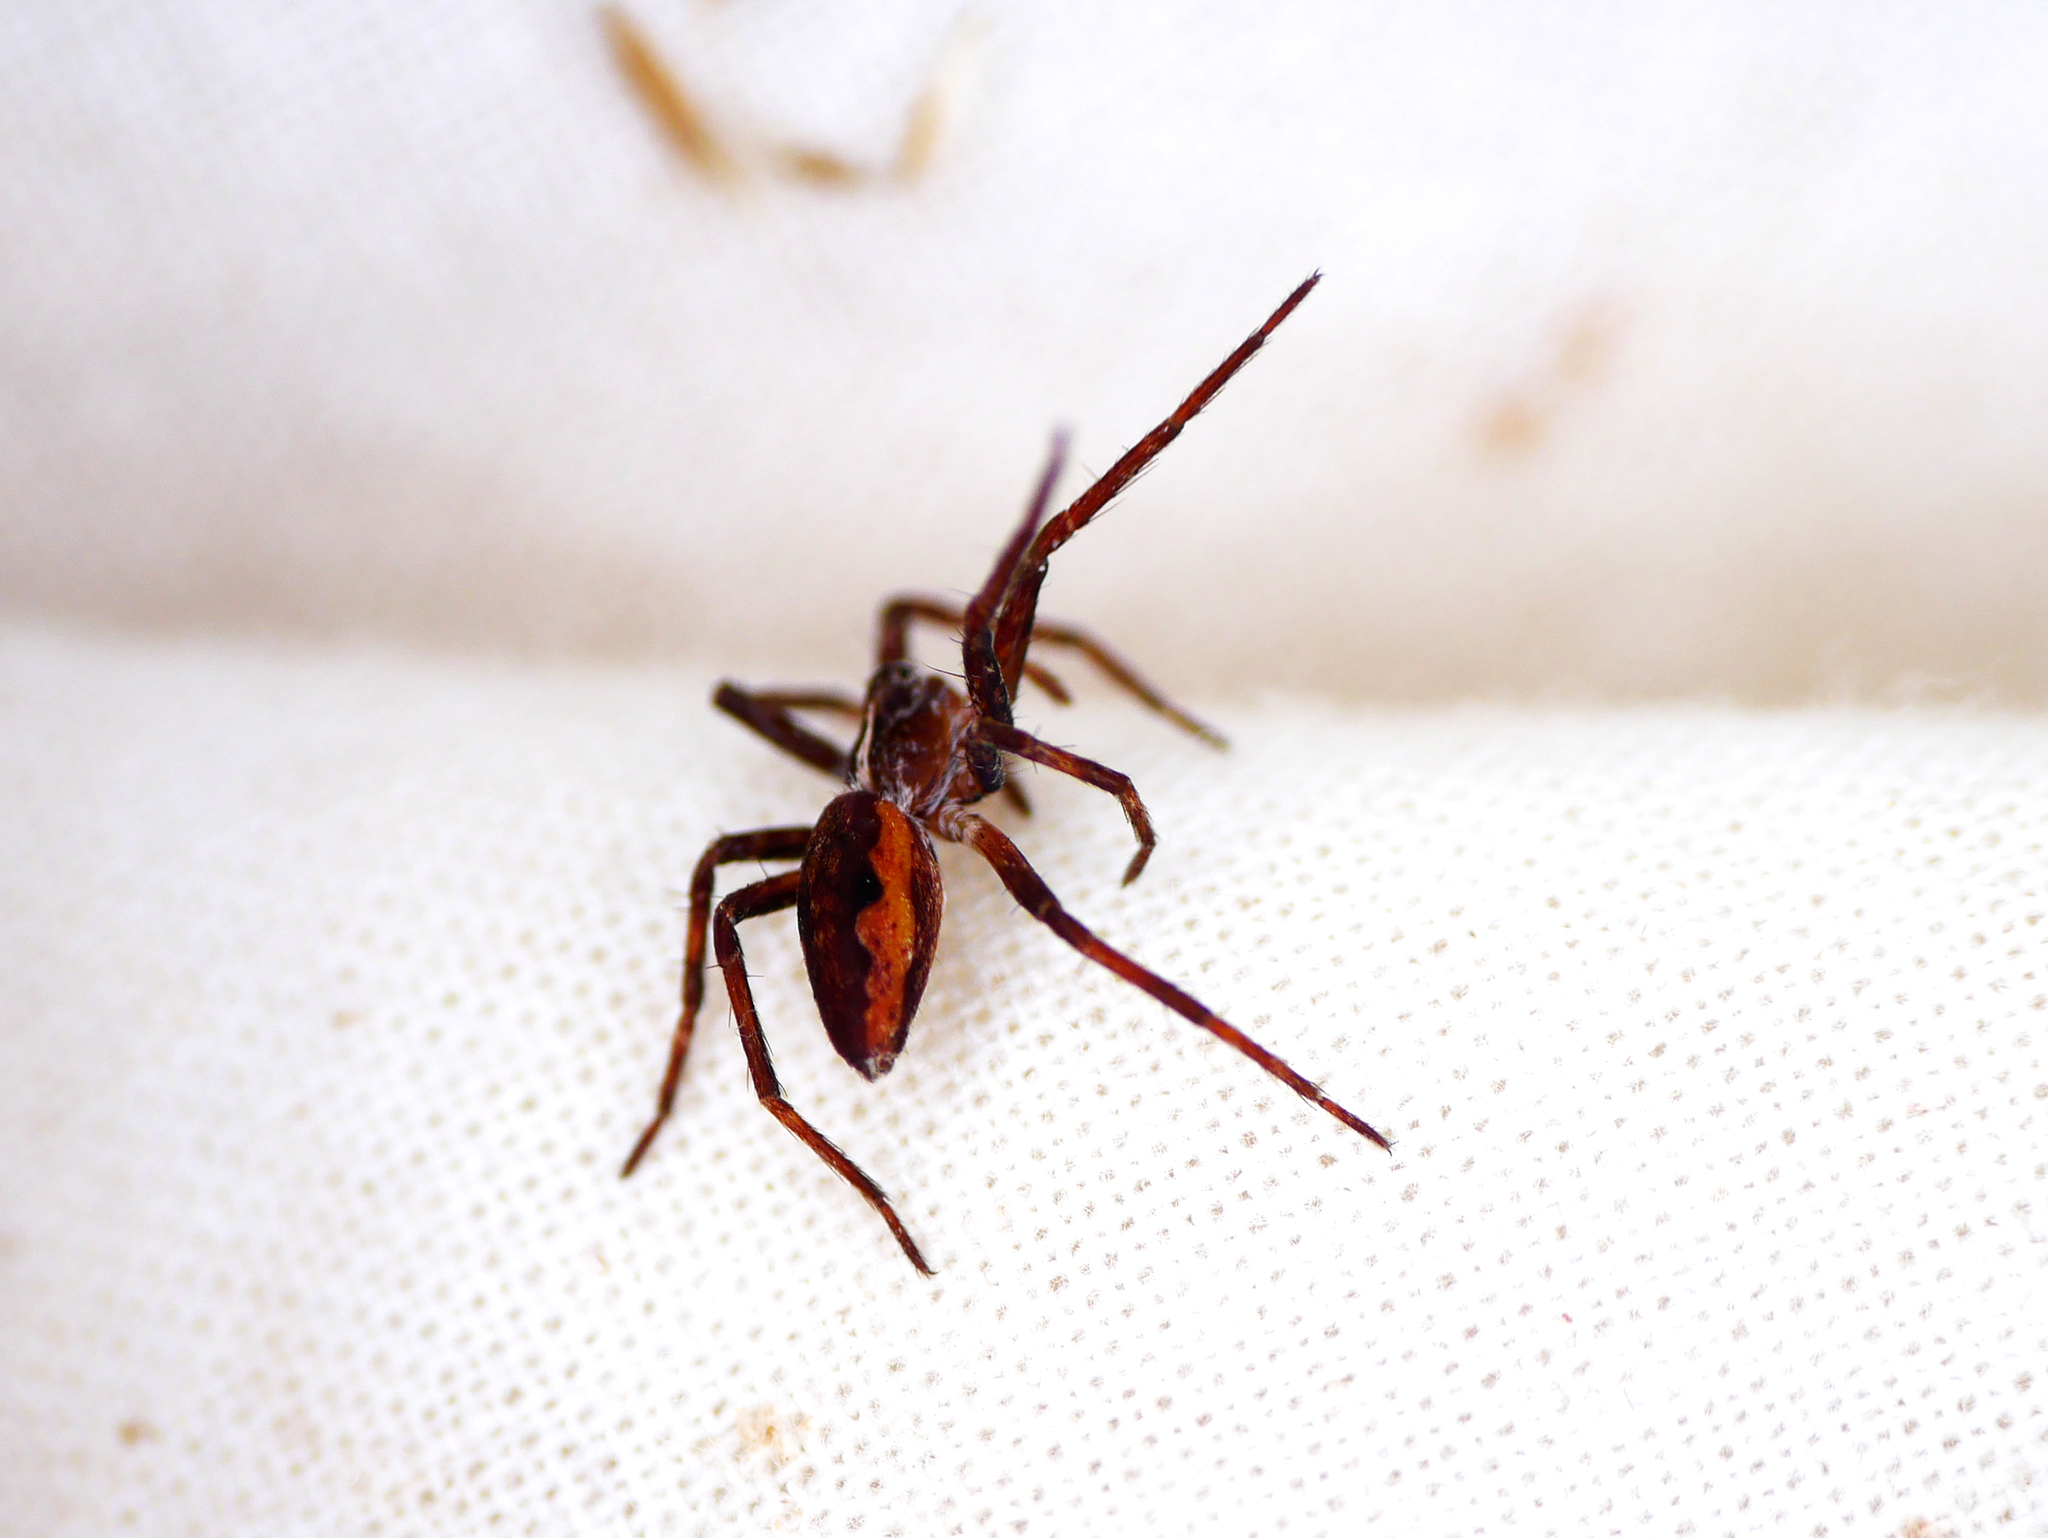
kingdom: Animalia
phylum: Arthropoda
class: Arachnida
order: Araneae
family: Pisauridae
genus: Pisaura
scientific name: Pisaura mirabilis
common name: Tent spider
